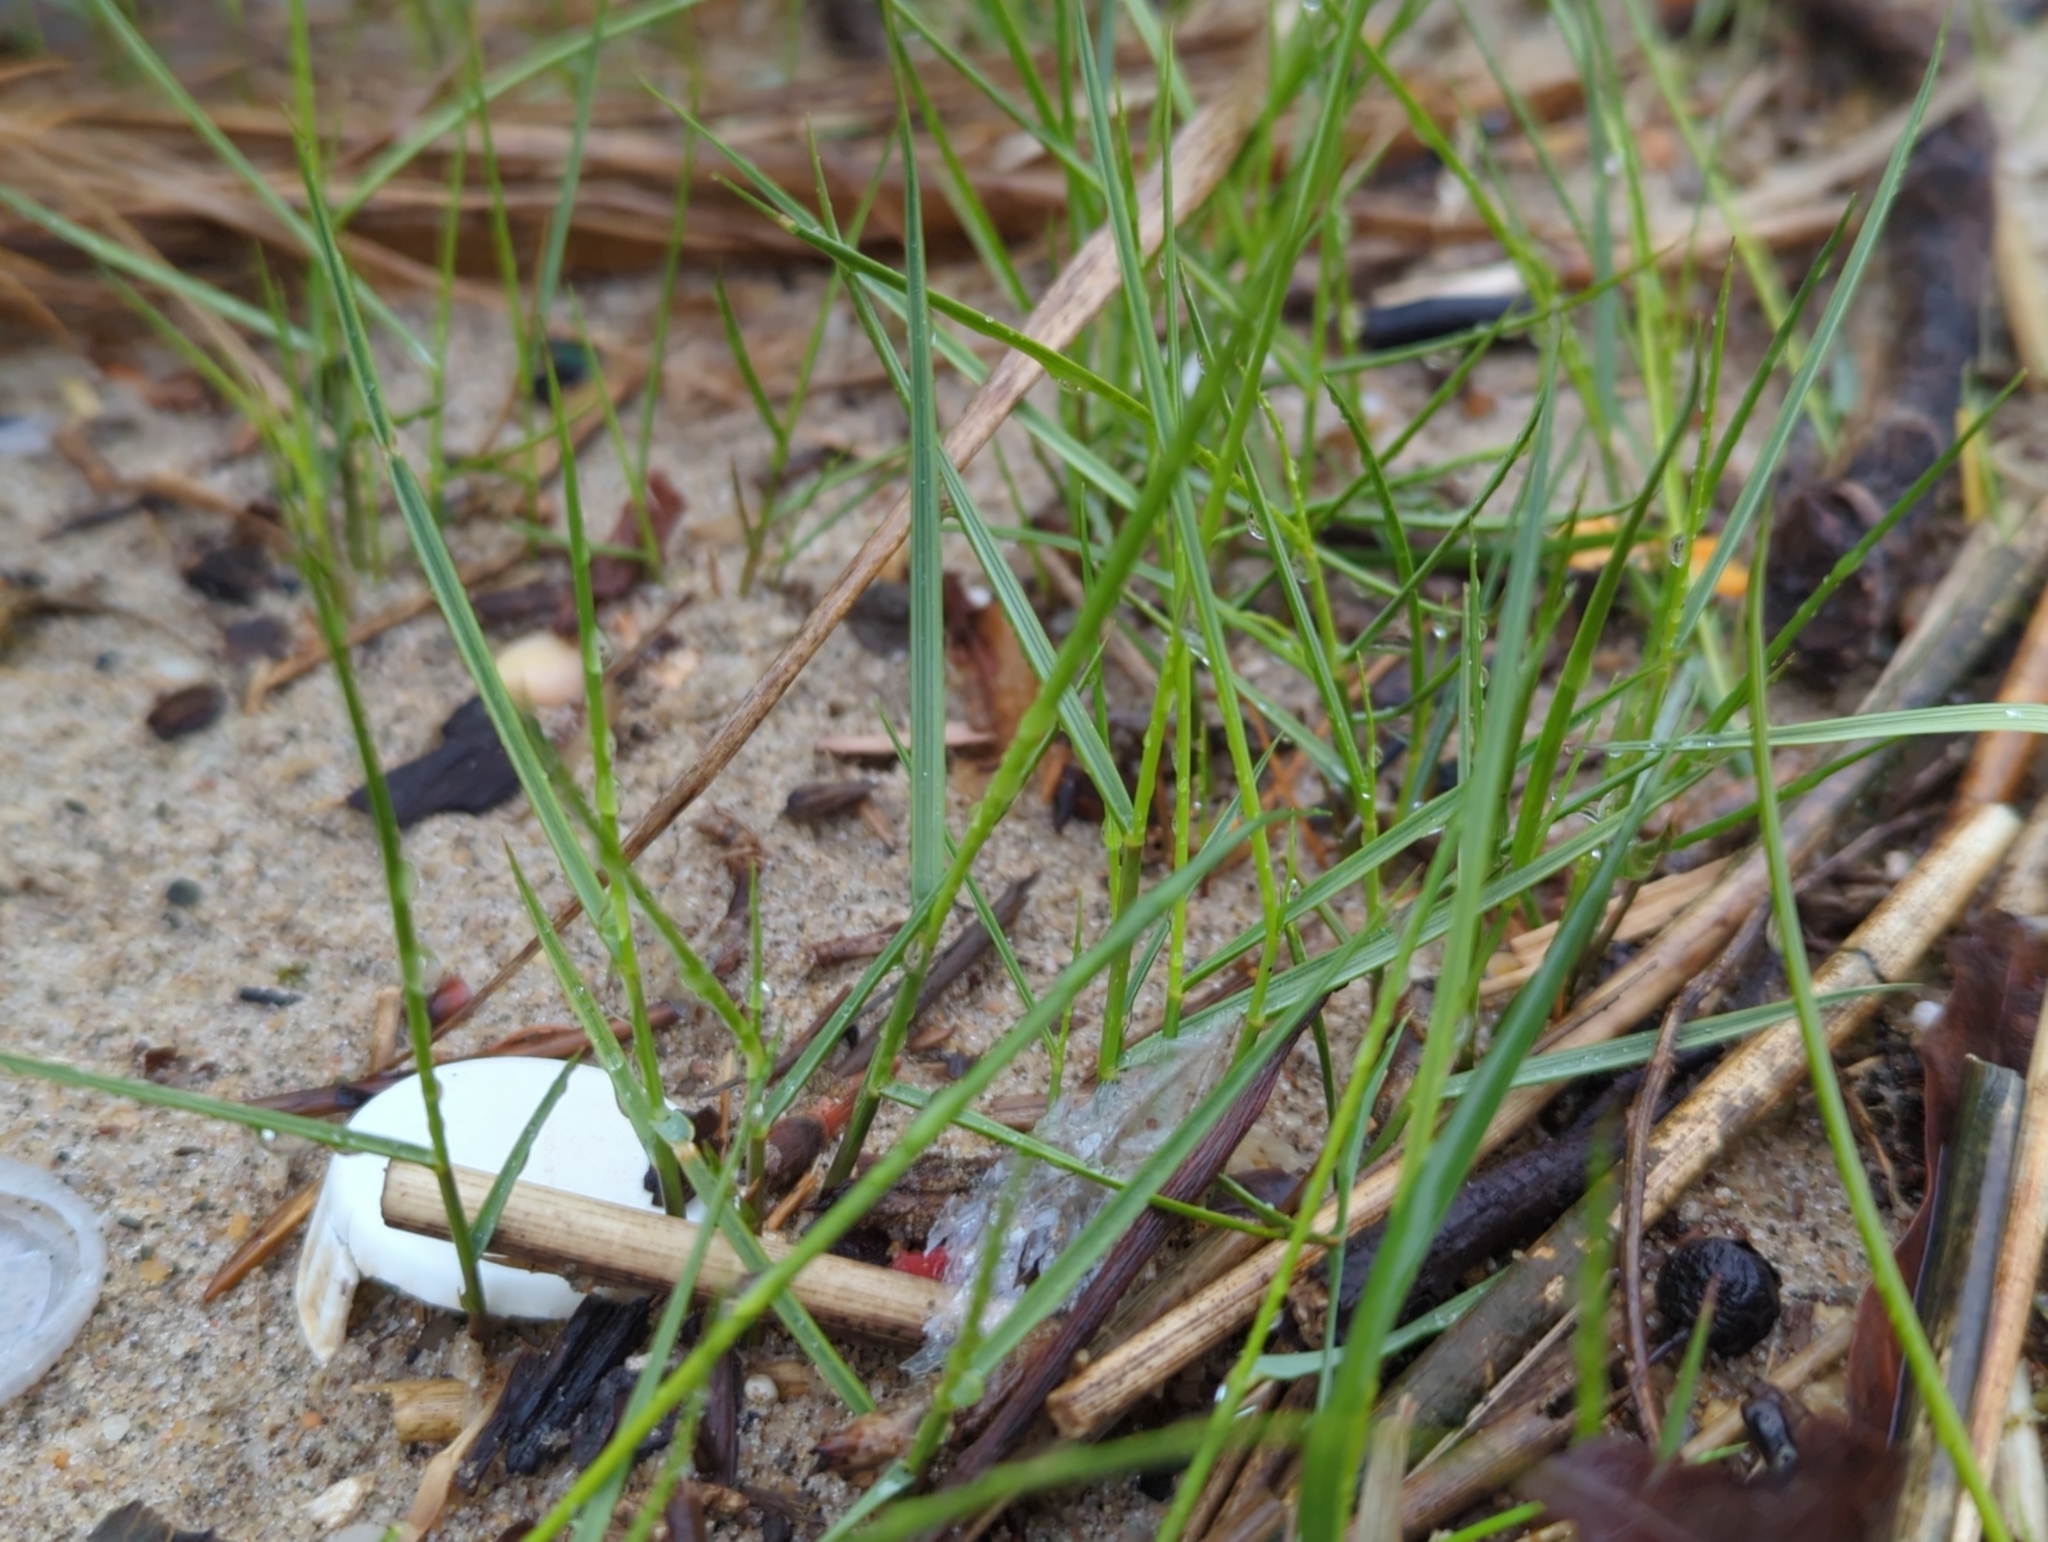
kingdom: Plantae
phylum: Tracheophyta
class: Liliopsida
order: Poales
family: Poaceae
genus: Distichlis
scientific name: Distichlis spicata
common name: Saltgrass
